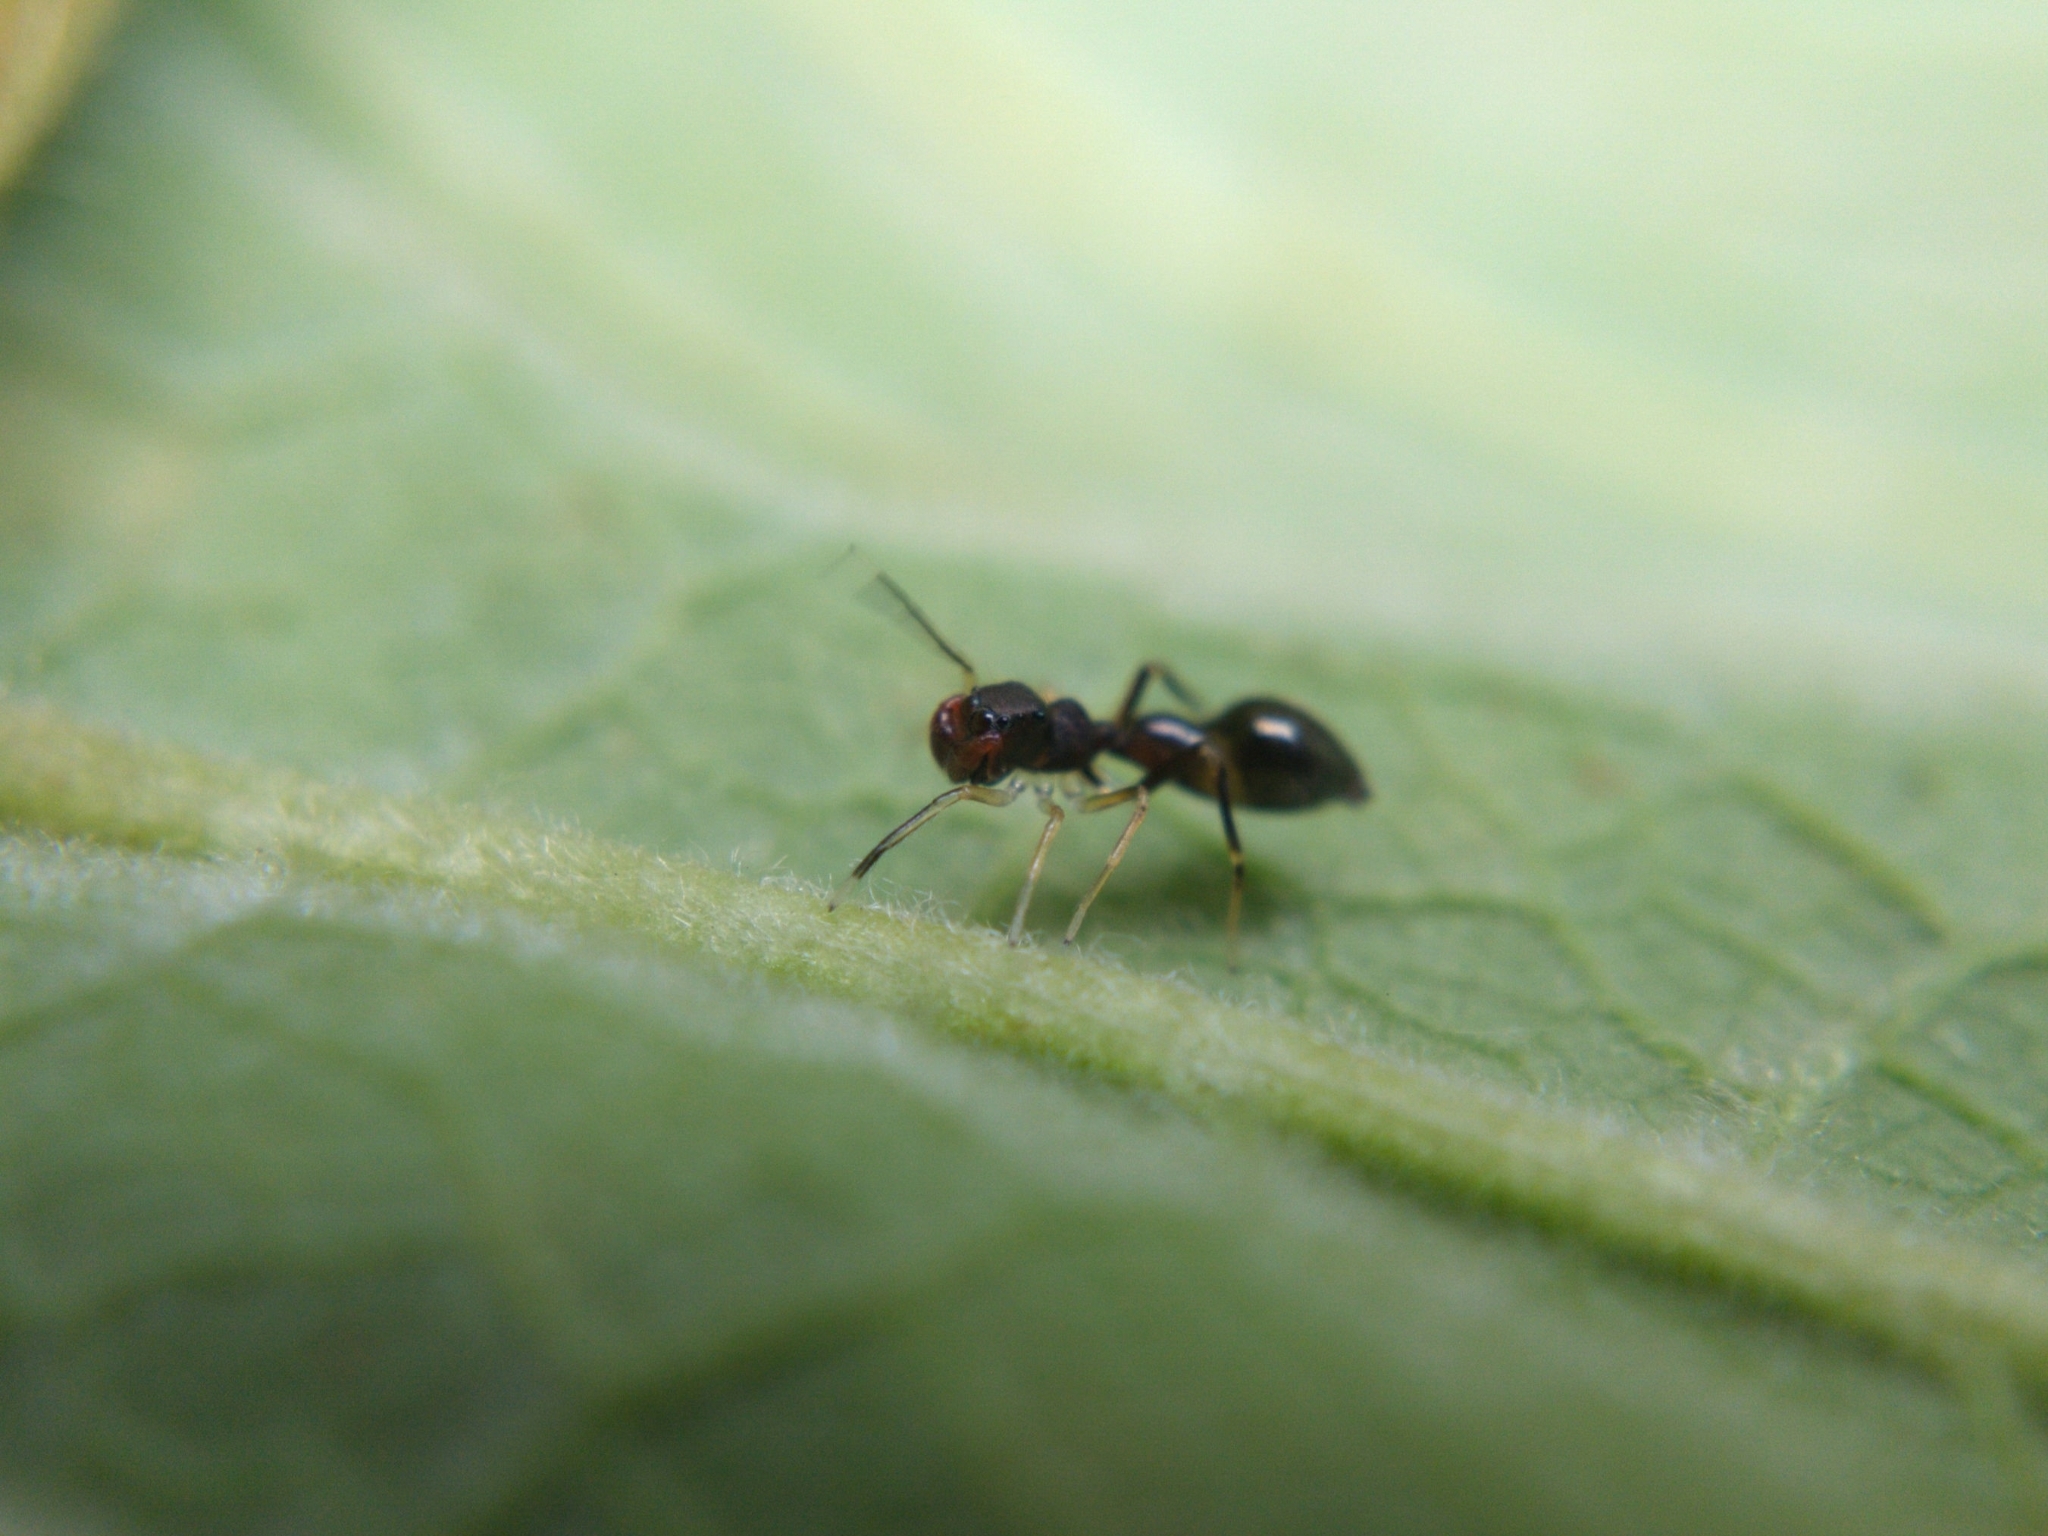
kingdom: Animalia
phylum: Arthropoda
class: Arachnida
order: Araneae
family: Salticidae
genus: Synemosyna
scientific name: Synemosyna formica
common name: Slender ant-mimic jumping spider
